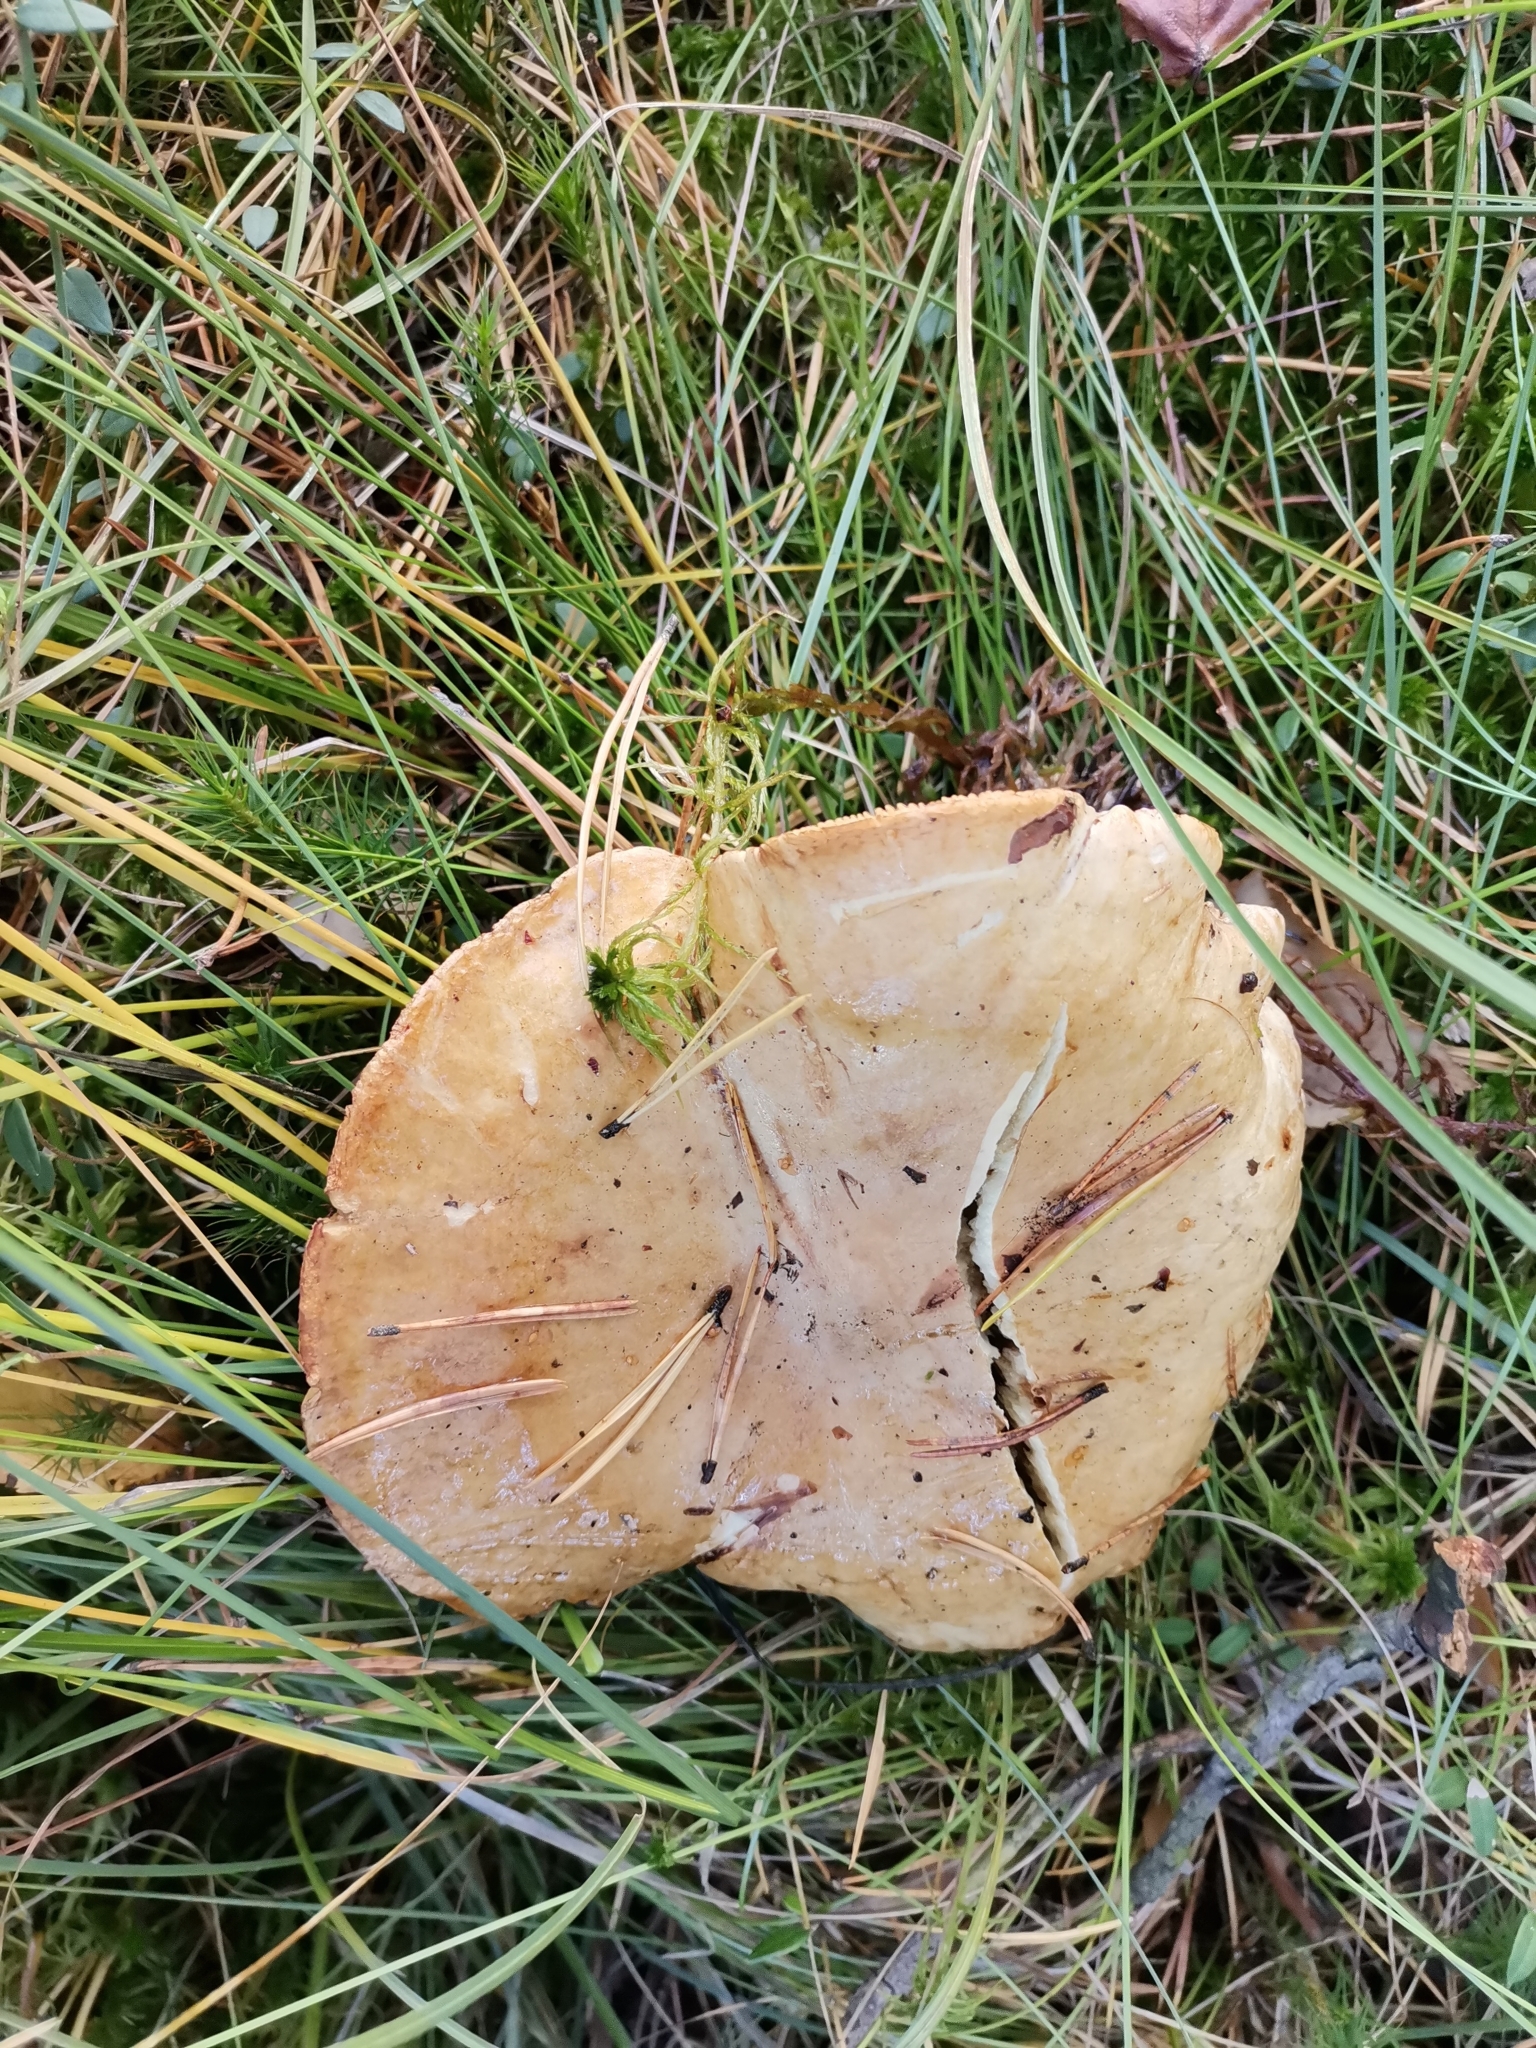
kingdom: Fungi
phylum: Basidiomycota
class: Agaricomycetes
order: Boletales
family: Paxillaceae
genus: Paxillus
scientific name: Paxillus involutus
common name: Brown roll rim
